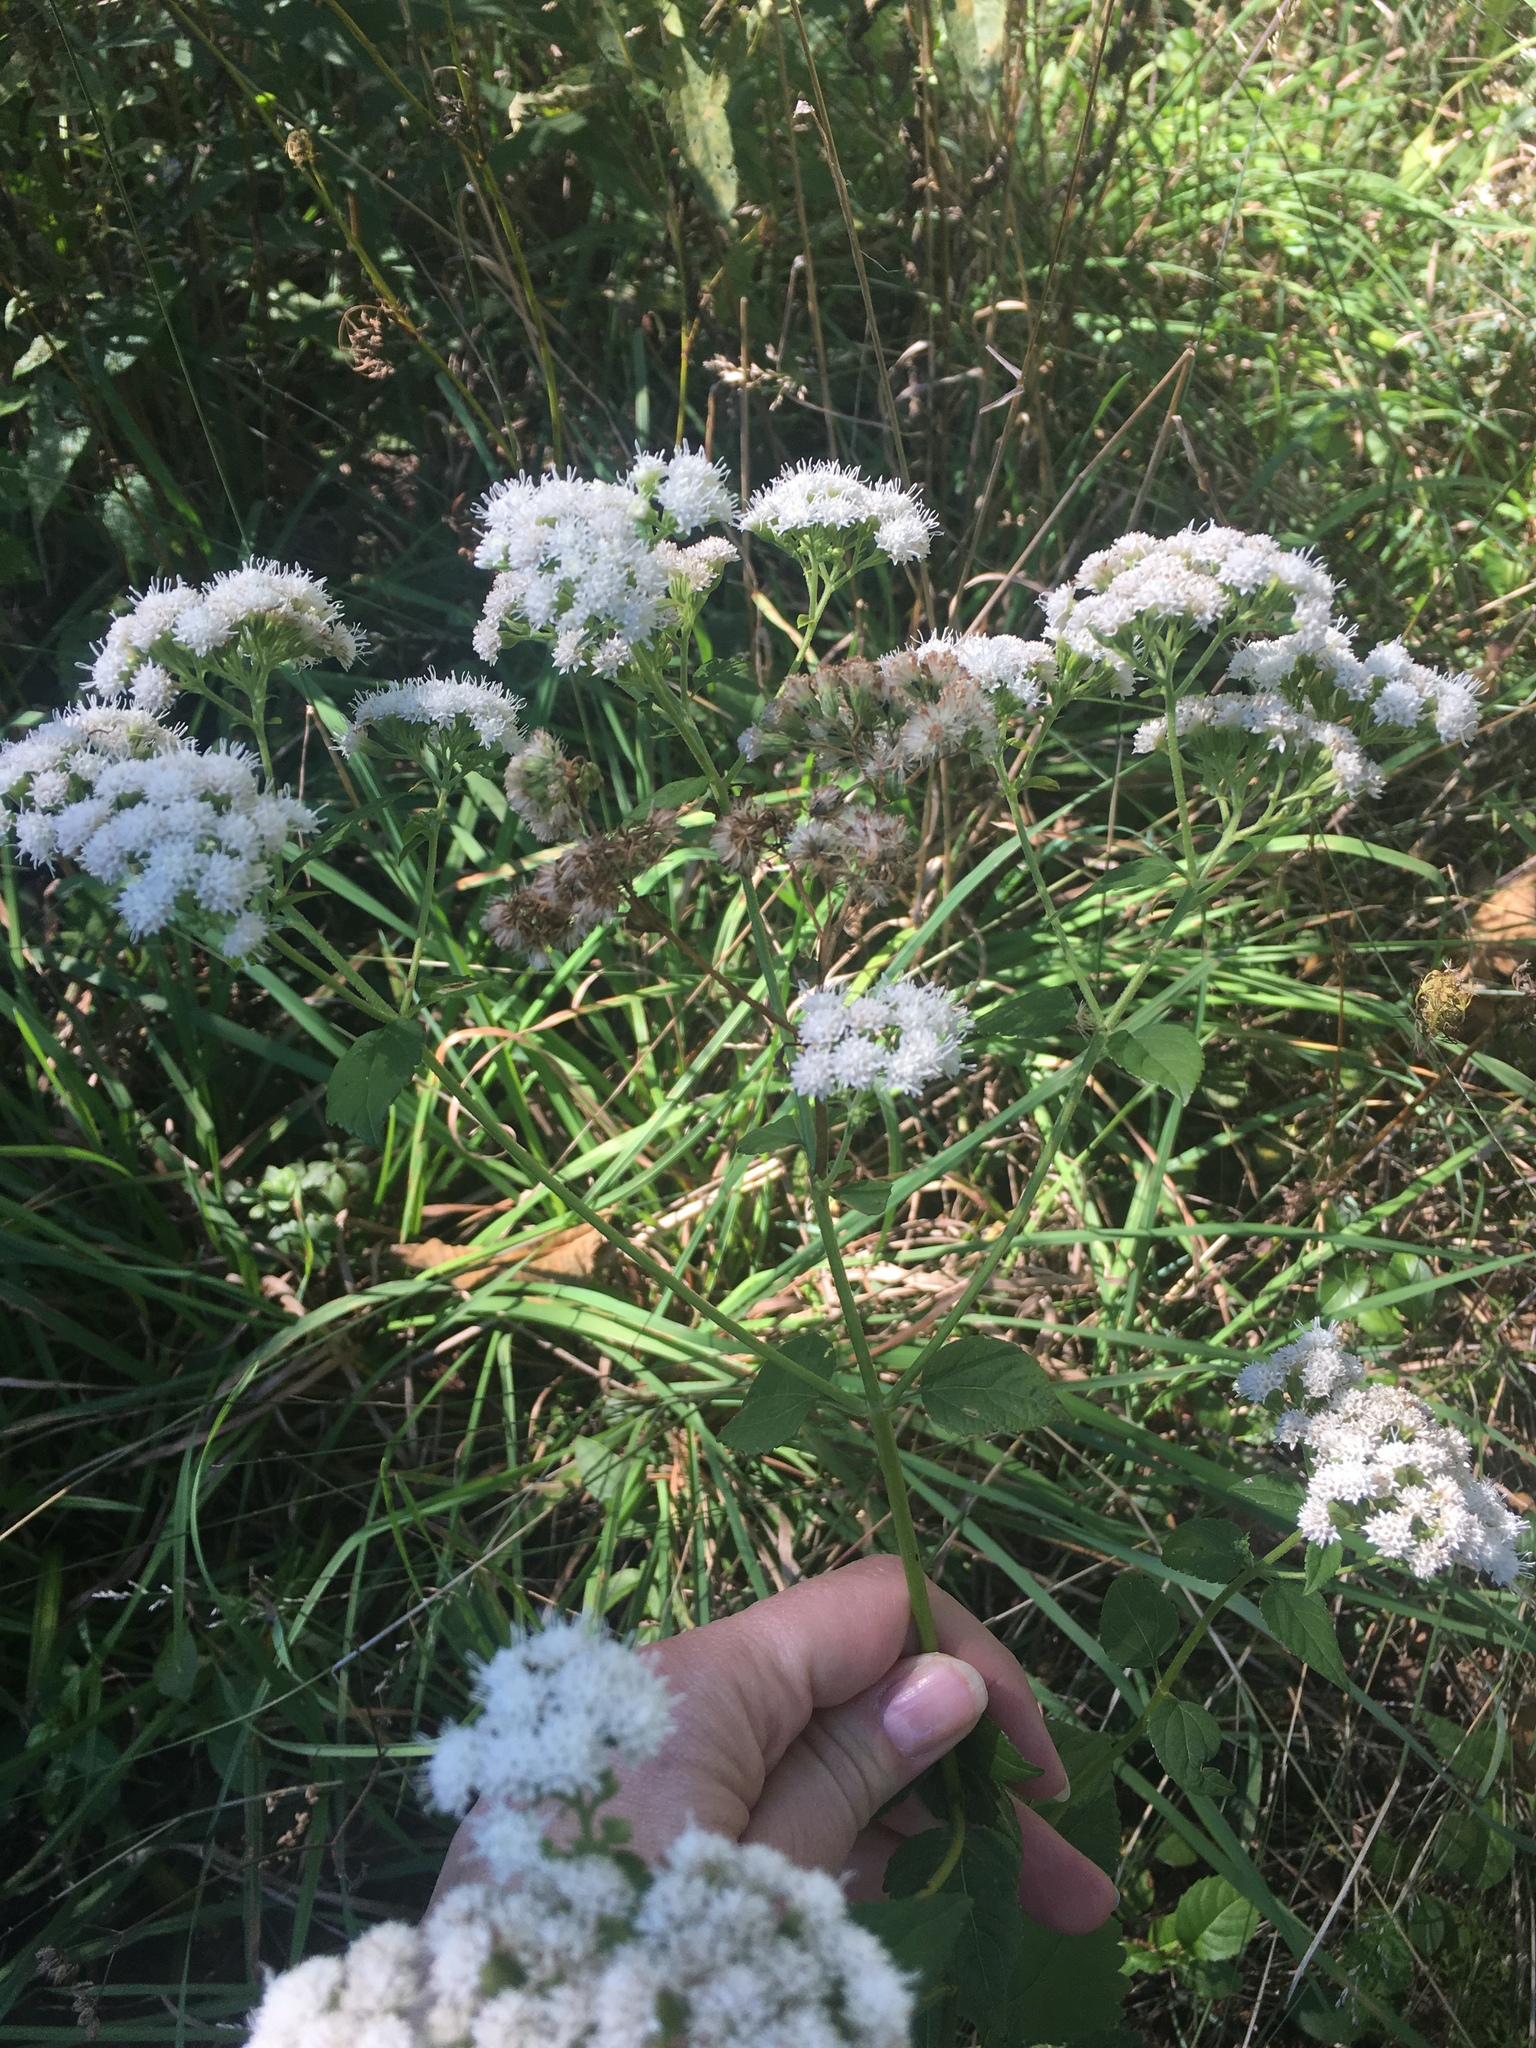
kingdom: Plantae
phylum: Tracheophyta
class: Magnoliopsida
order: Asterales
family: Asteraceae
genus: Ageratina
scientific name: Ageratina altissima
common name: White snakeroot
